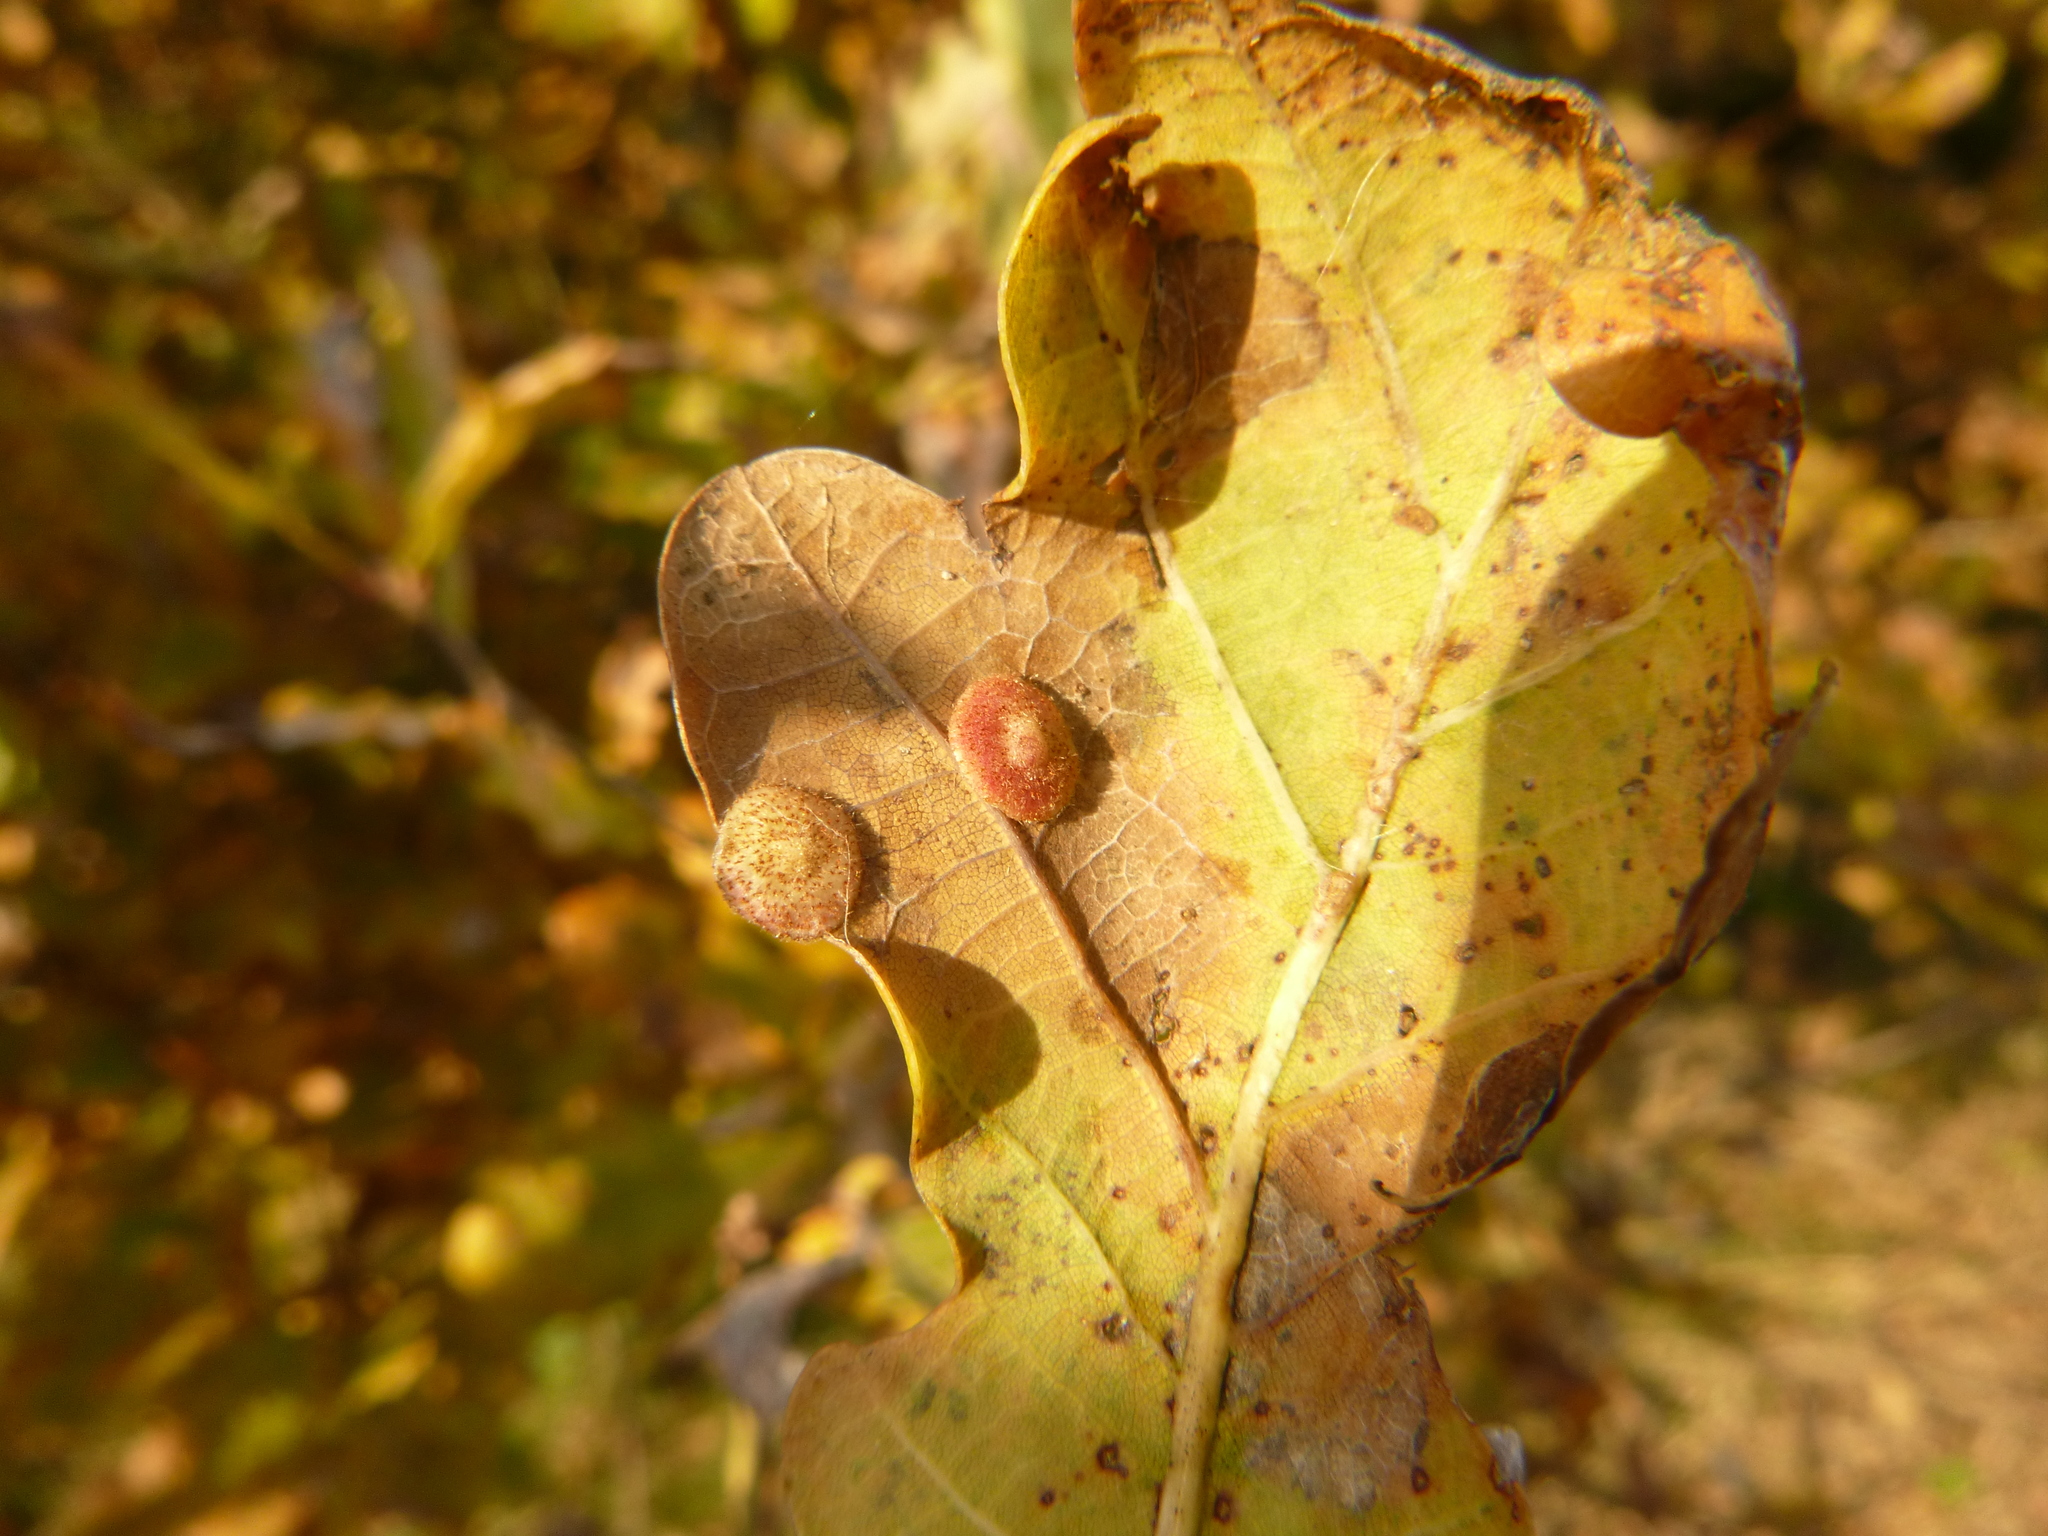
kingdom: Animalia
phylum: Arthropoda
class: Insecta
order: Hymenoptera
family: Cynipidae
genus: Neuroterus
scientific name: Neuroterus quercusbaccarum
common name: Common spangle gall
